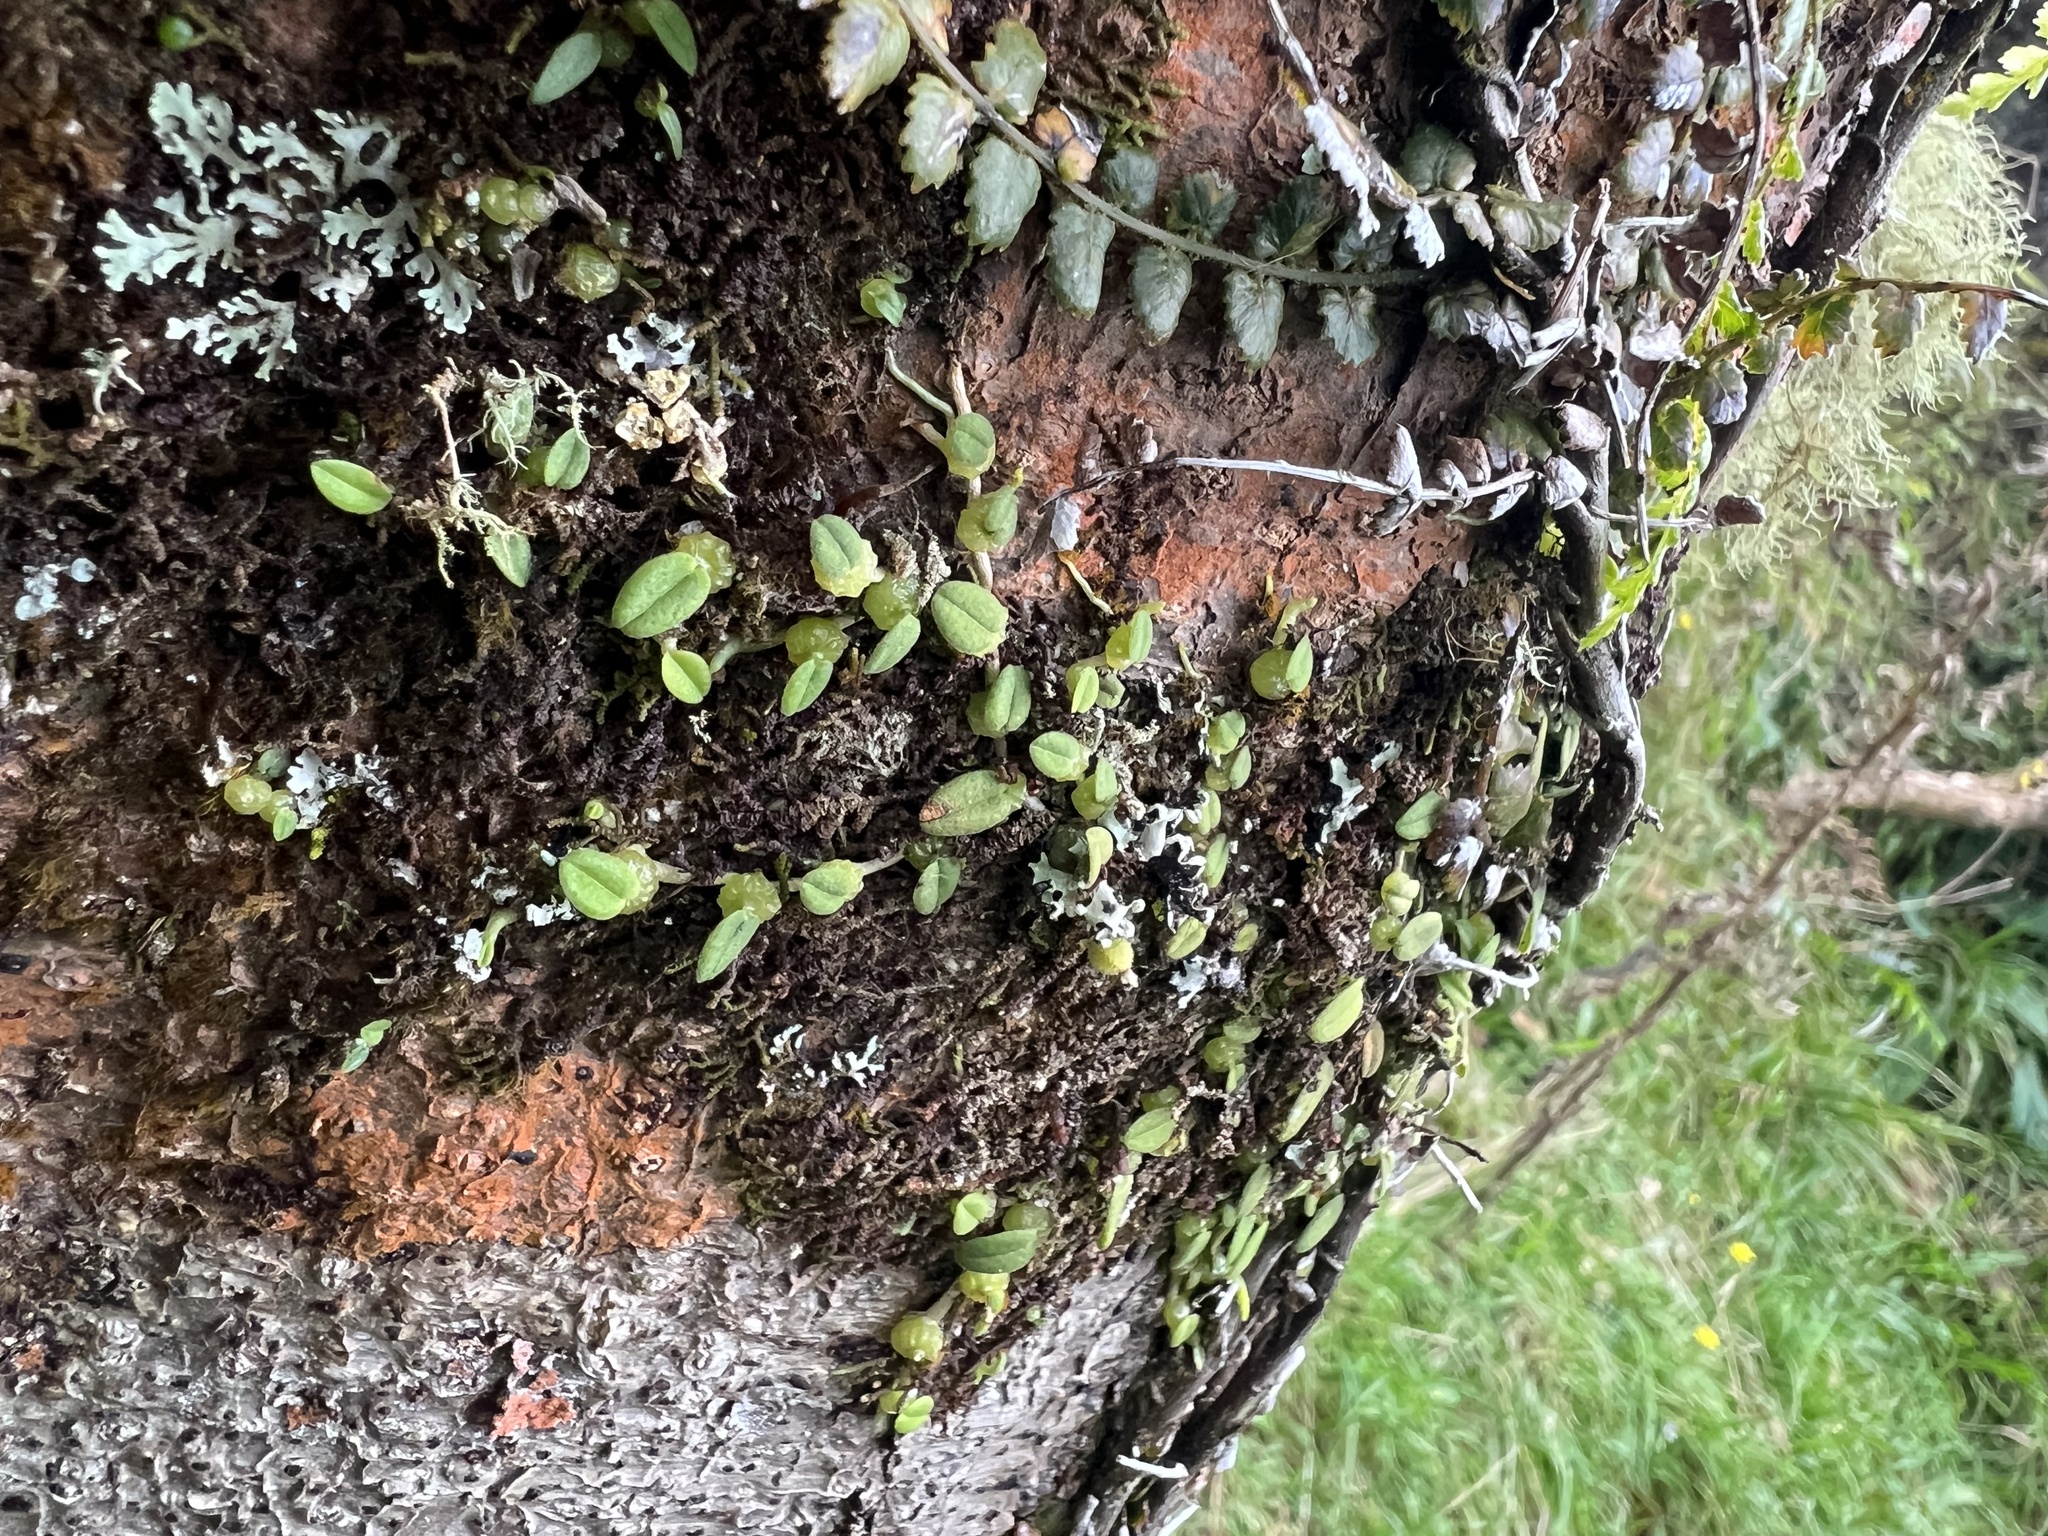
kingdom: Plantae
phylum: Tracheophyta
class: Liliopsida
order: Asparagales
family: Orchidaceae
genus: Bulbophyllum
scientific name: Bulbophyllum pygmaeum
